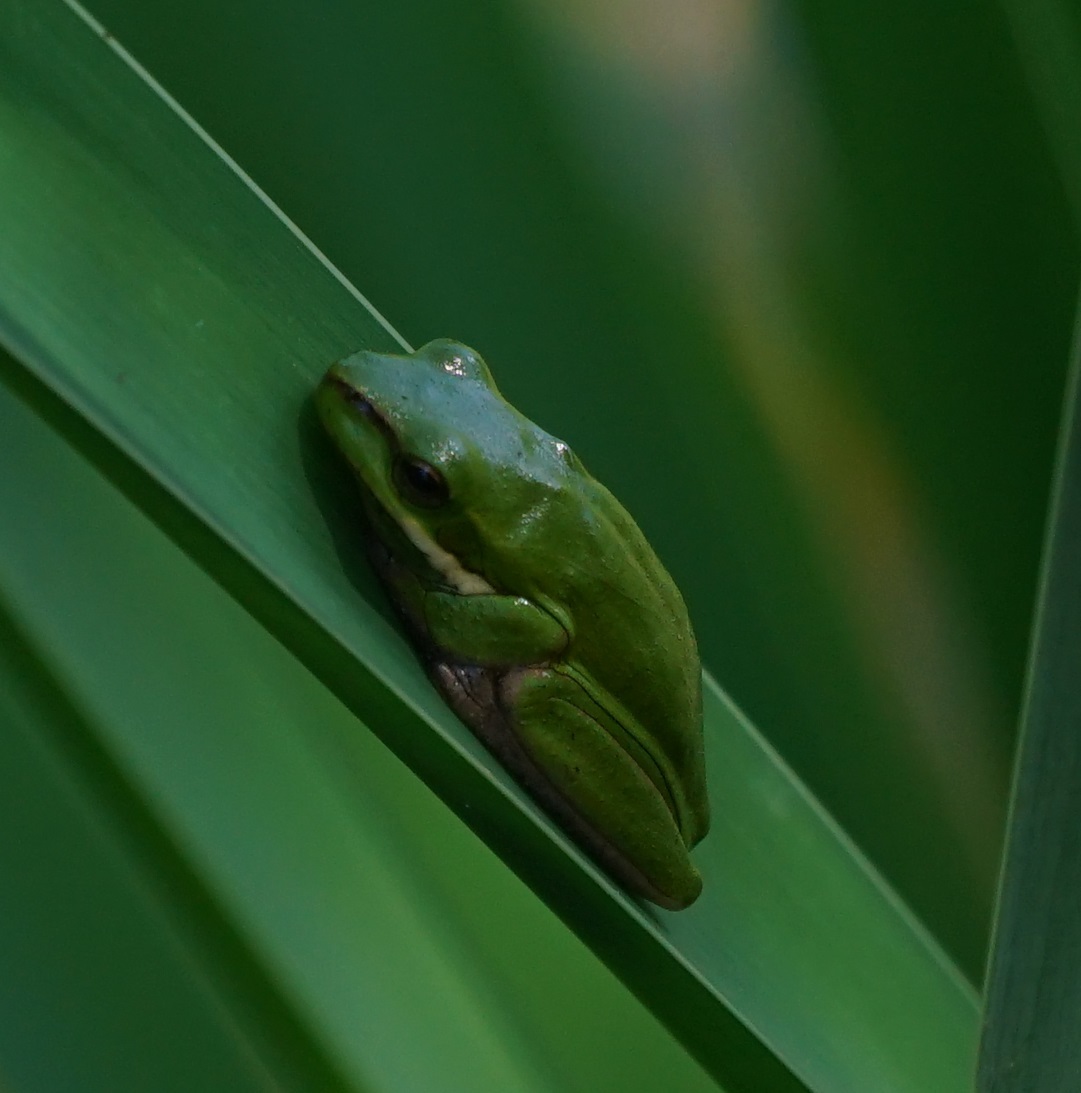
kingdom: Animalia
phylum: Chordata
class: Amphibia
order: Anura
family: Pelodryadidae
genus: Litoria
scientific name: Litoria fallax
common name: Eastern dwarf treefrog
